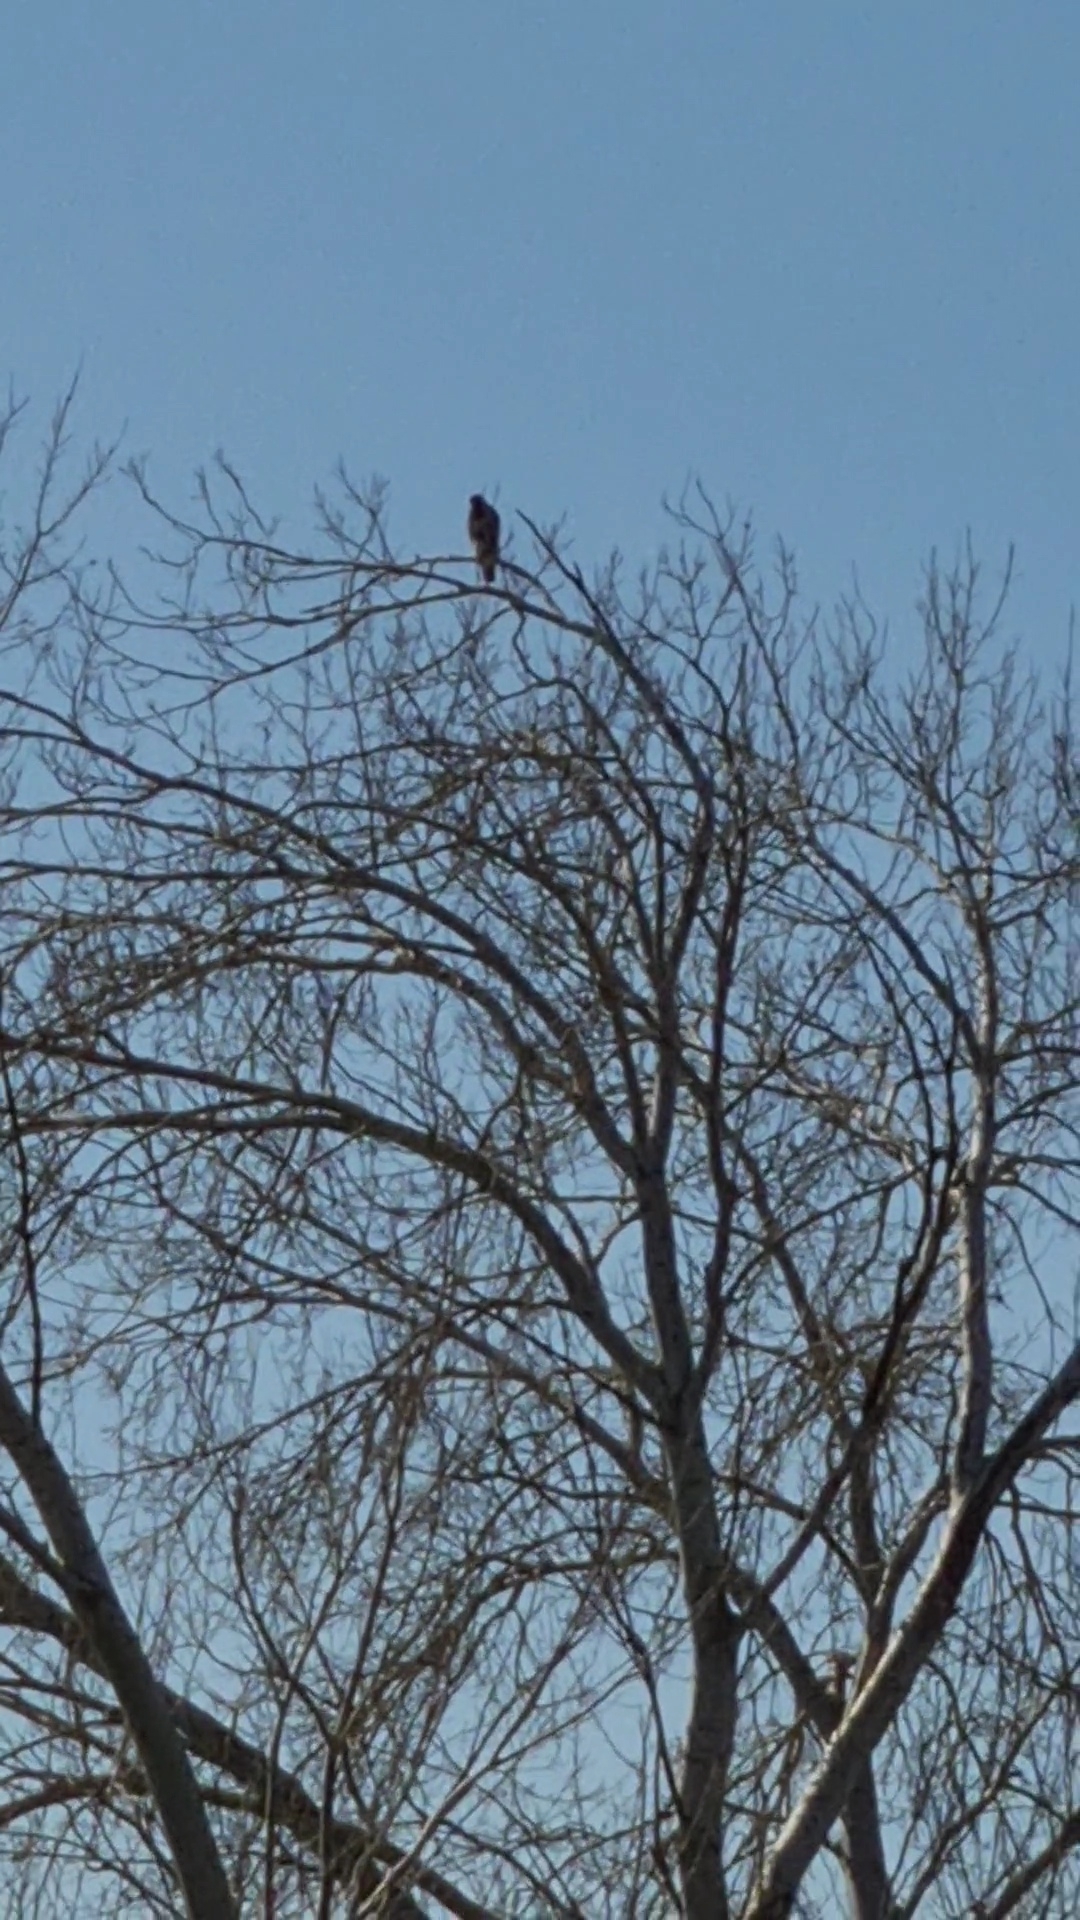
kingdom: Animalia
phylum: Chordata
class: Aves
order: Accipitriformes
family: Accipitridae
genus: Buteo
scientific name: Buteo buteo
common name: Common buzzard
